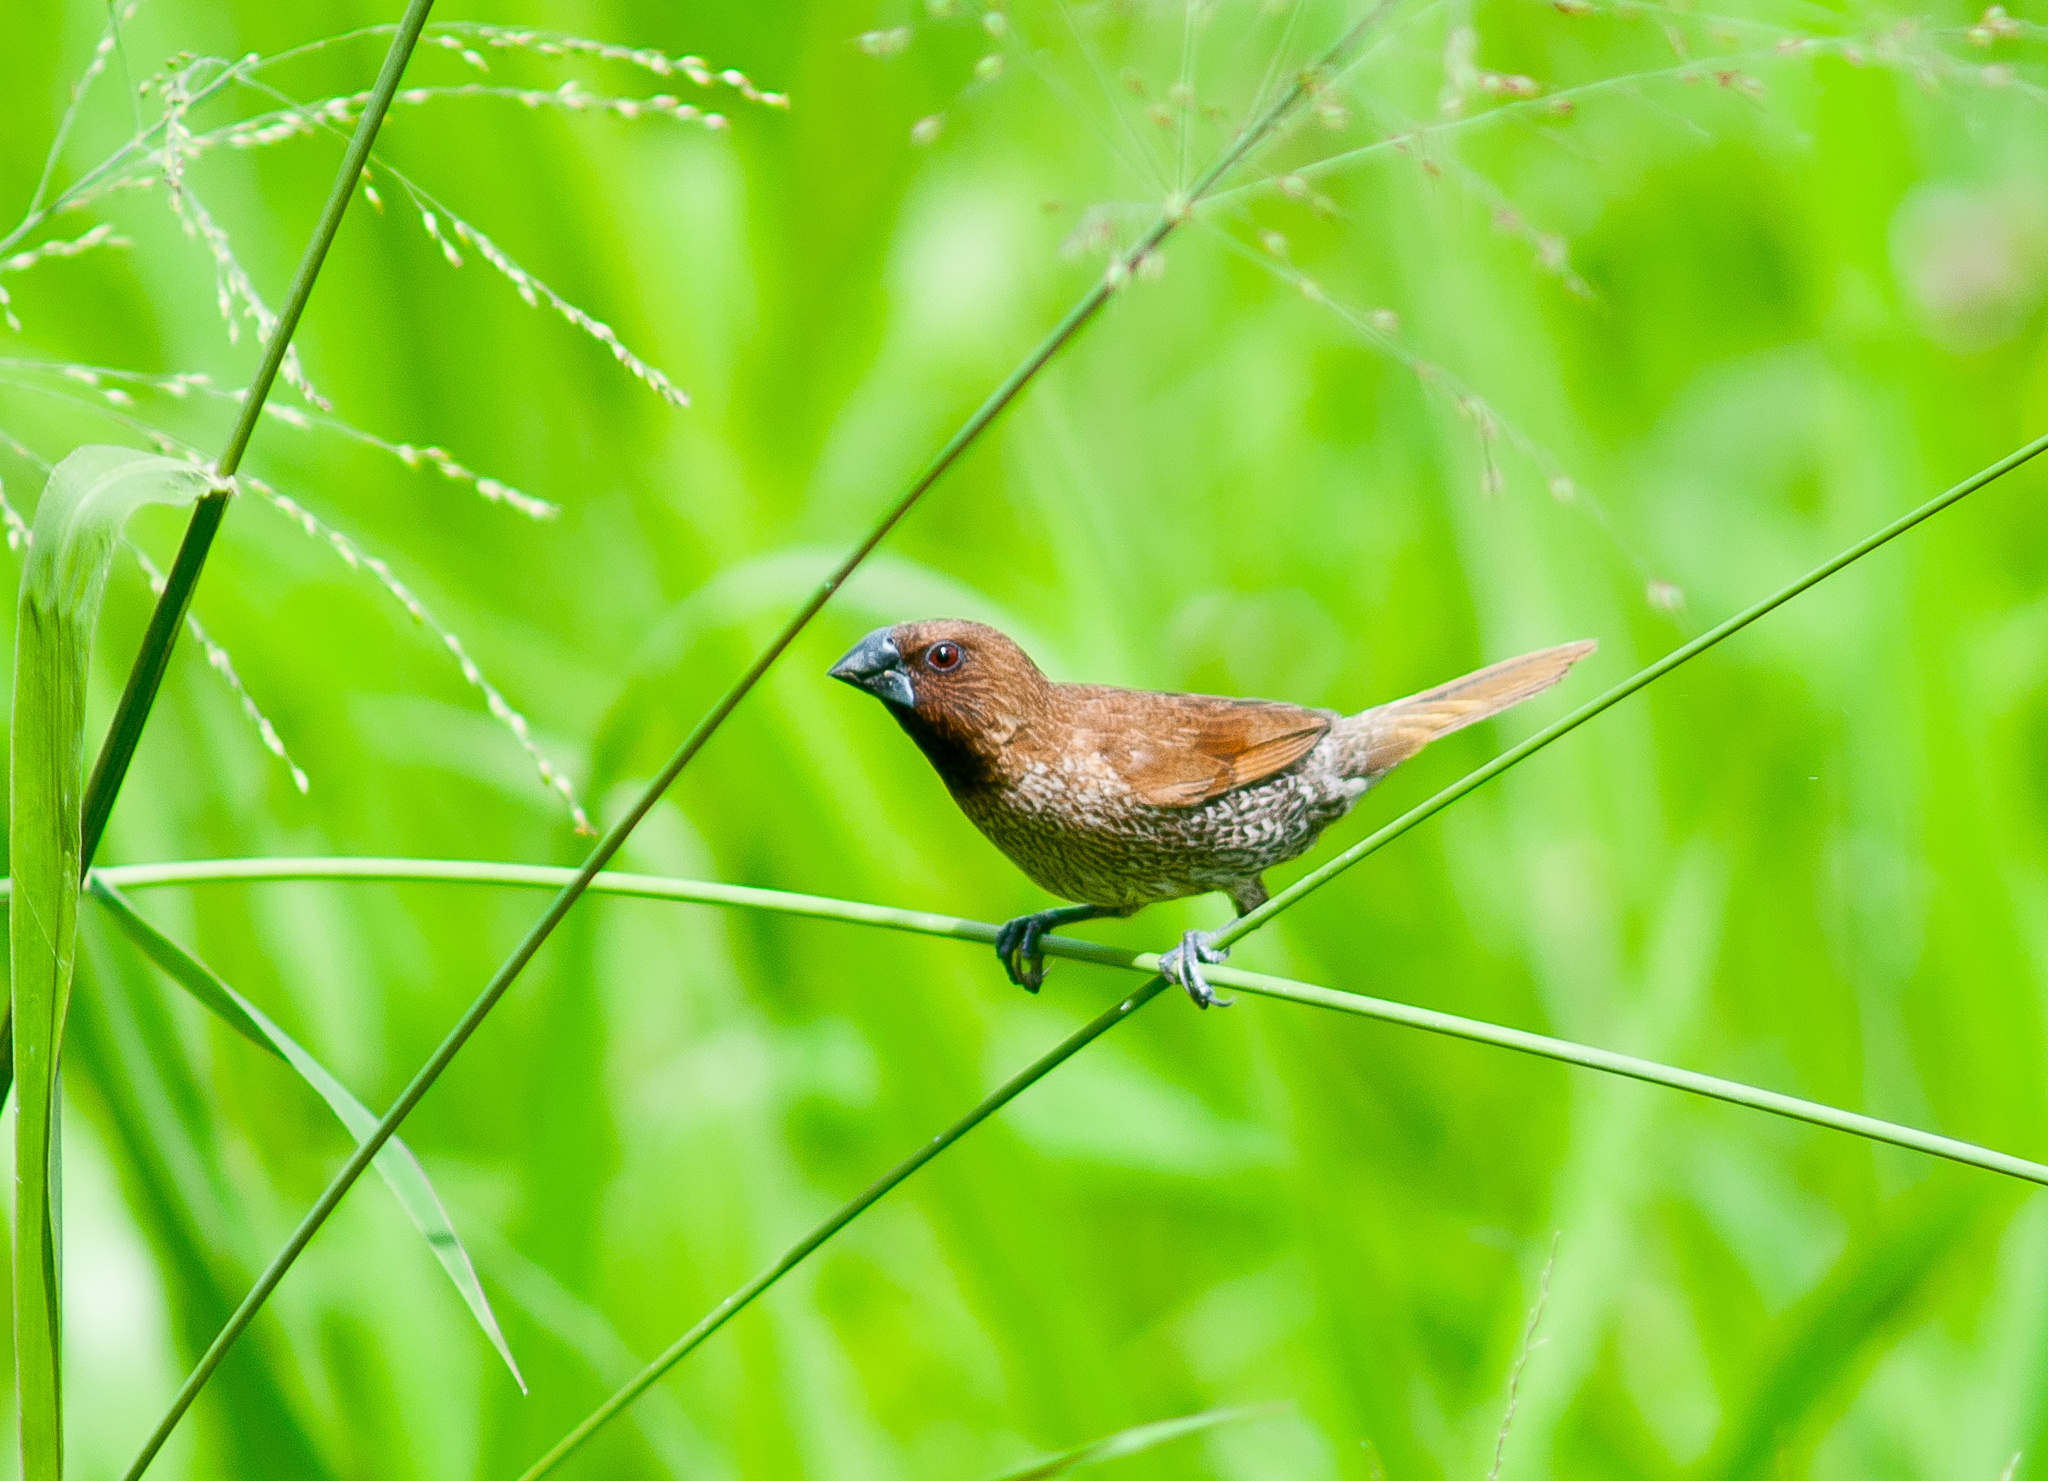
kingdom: Animalia
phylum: Chordata
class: Aves
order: Passeriformes
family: Estrildidae
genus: Lonchura
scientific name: Lonchura punctulata
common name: Scaly-breasted munia
